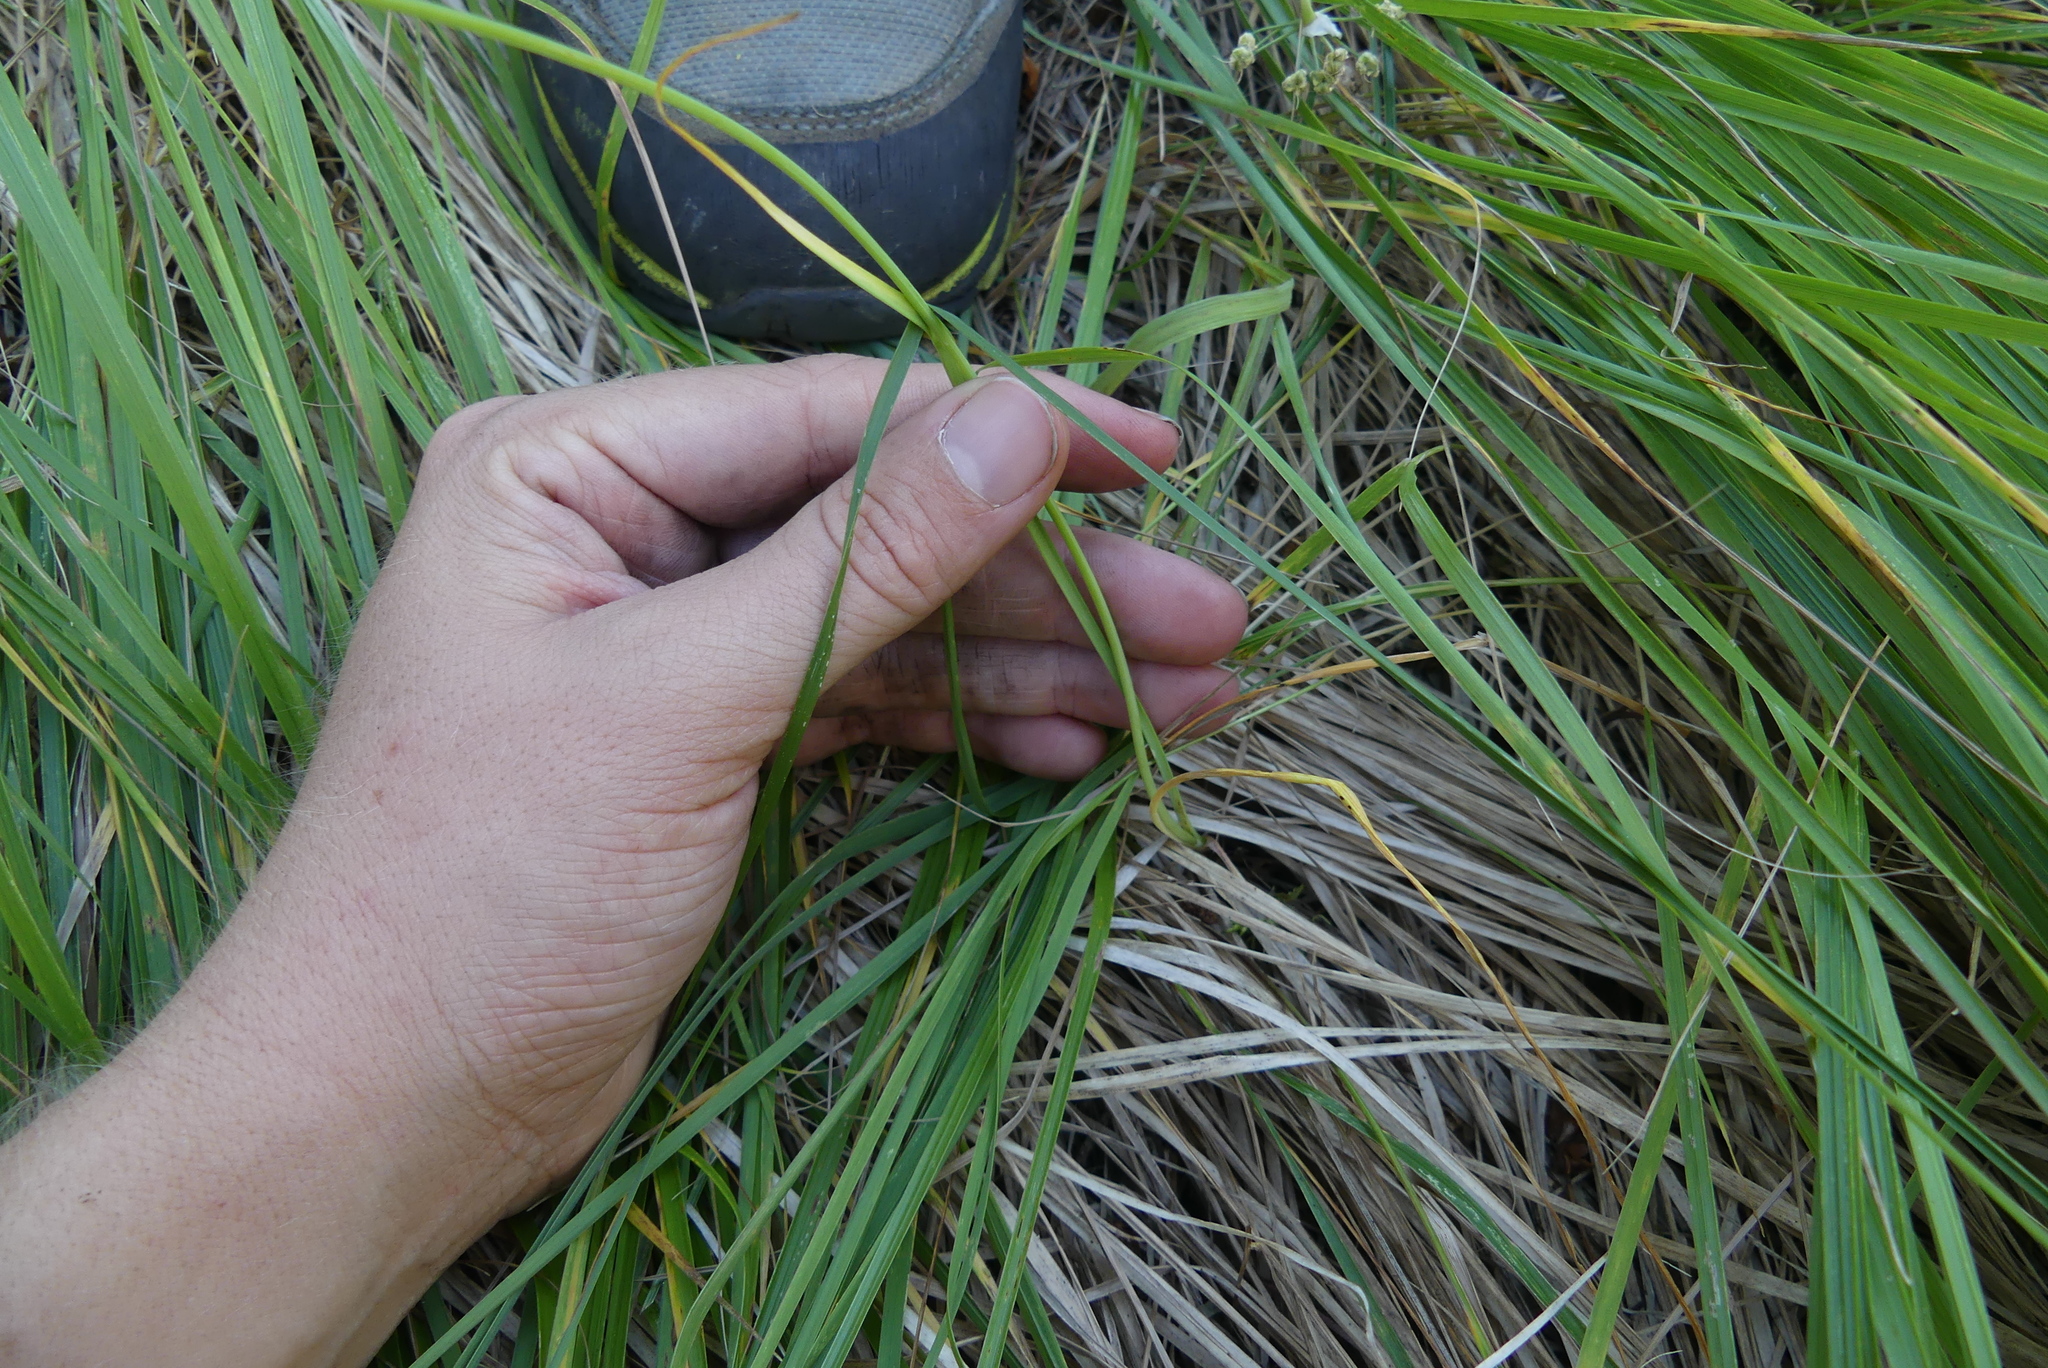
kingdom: Plantae
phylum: Tracheophyta
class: Liliopsida
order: Asparagales
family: Amaryllidaceae
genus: Allium
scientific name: Allium cernuum
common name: Nodding onion
